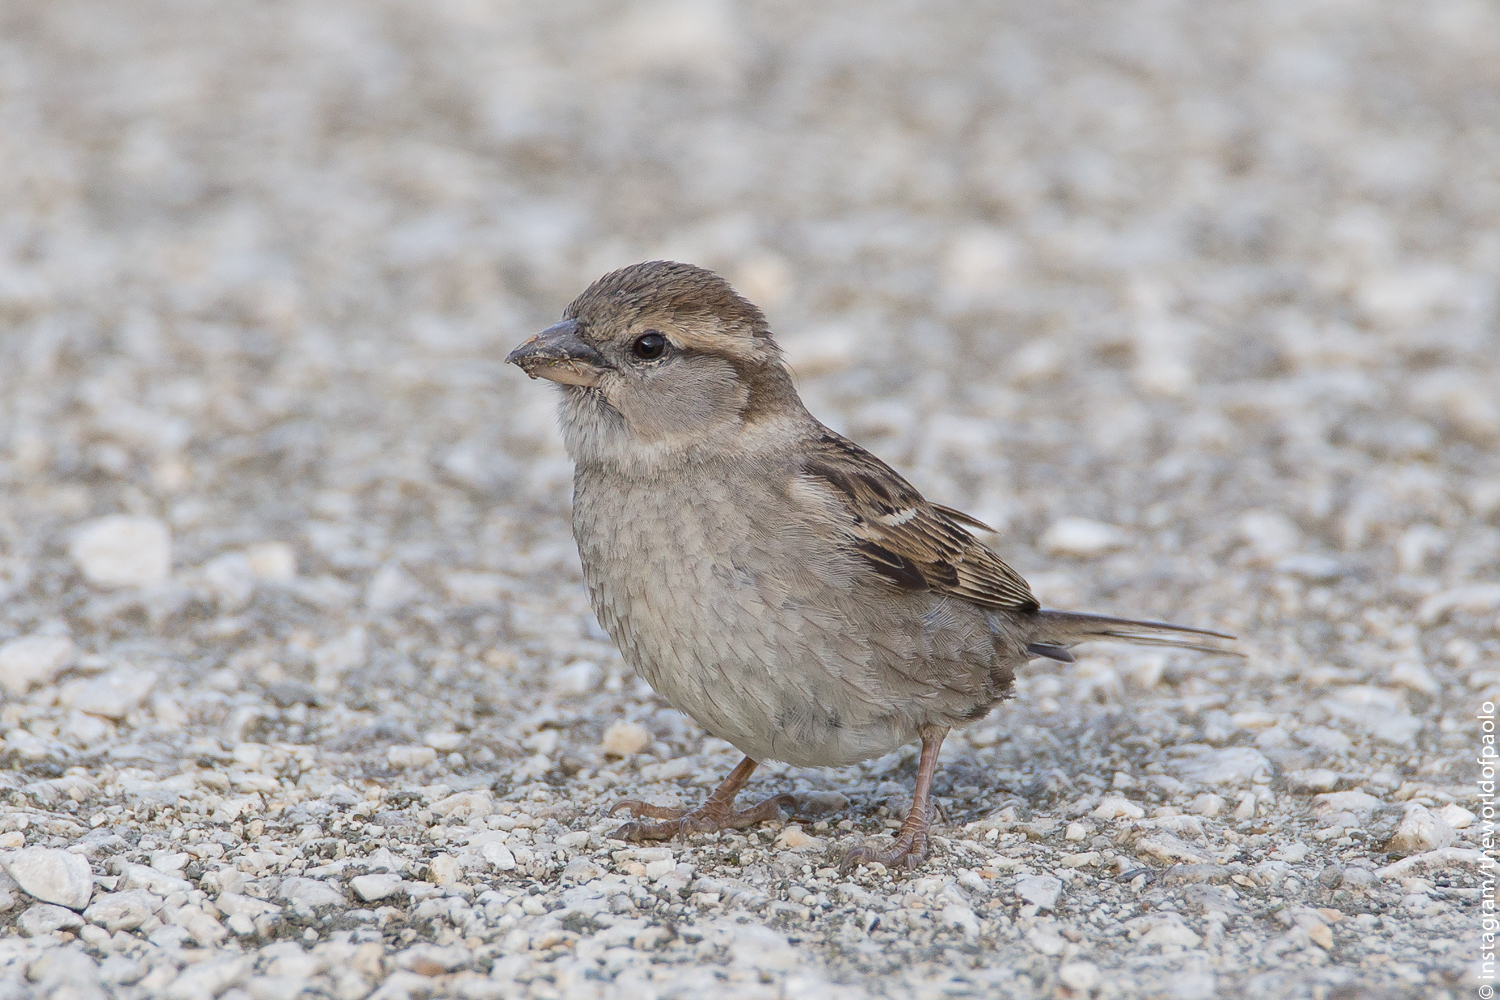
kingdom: Animalia
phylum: Chordata
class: Aves
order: Passeriformes
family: Passeridae
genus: Passer
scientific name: Passer italiae
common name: Italian sparrow
